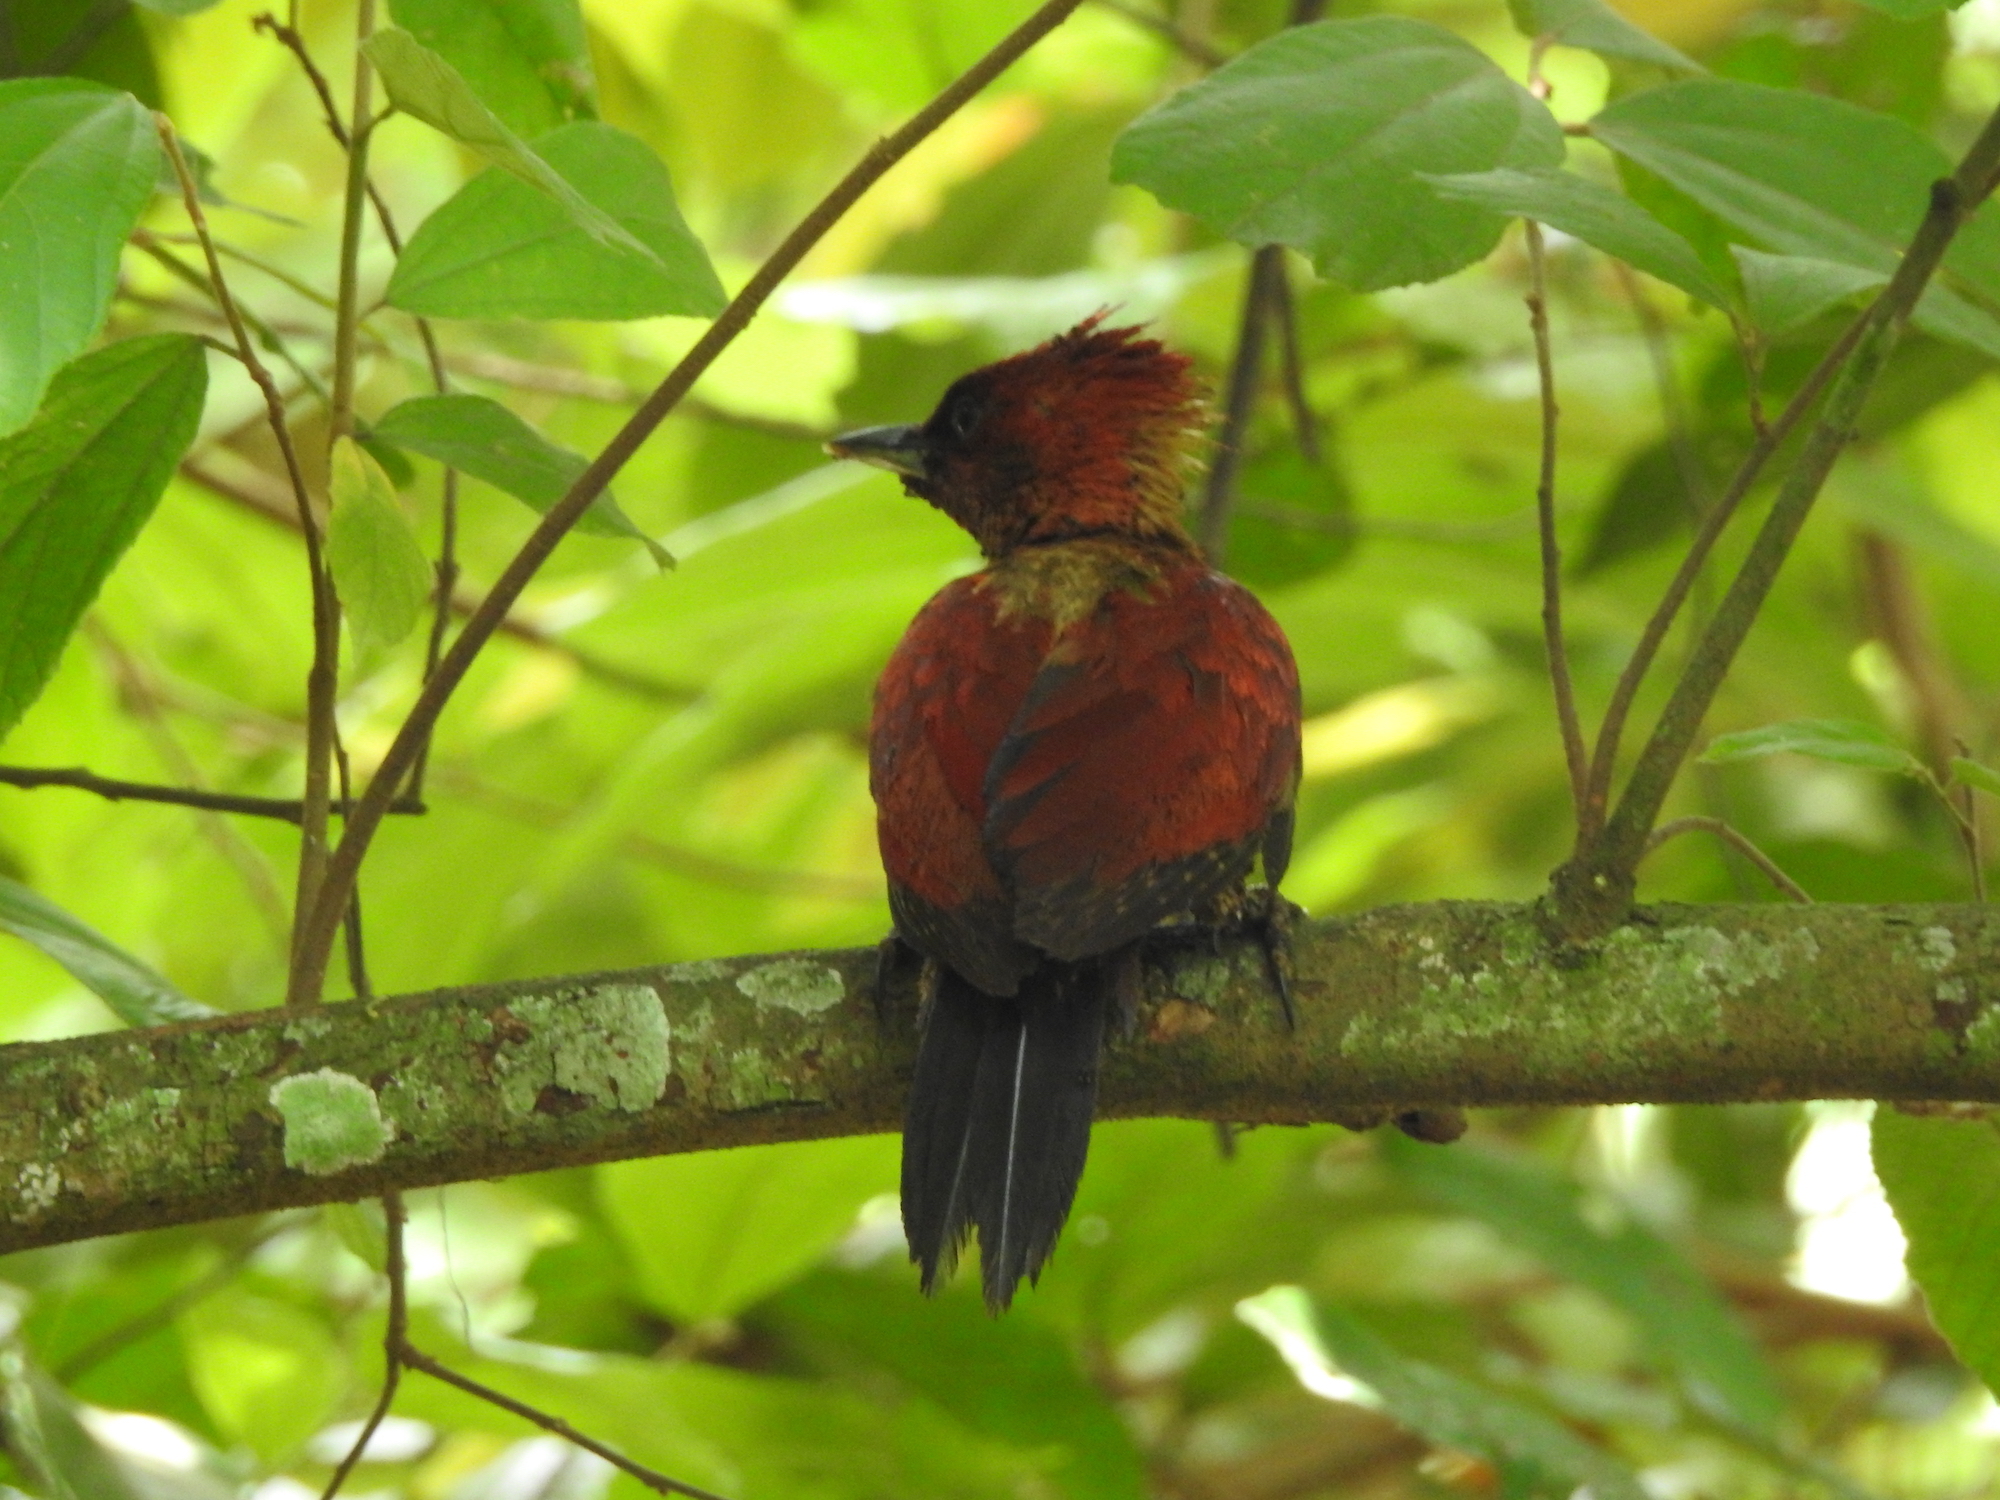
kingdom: Animalia
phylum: Chordata
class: Aves
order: Piciformes
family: Picidae
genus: Chrysophlegma
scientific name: Chrysophlegma miniaceum
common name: Banded woodpecker
